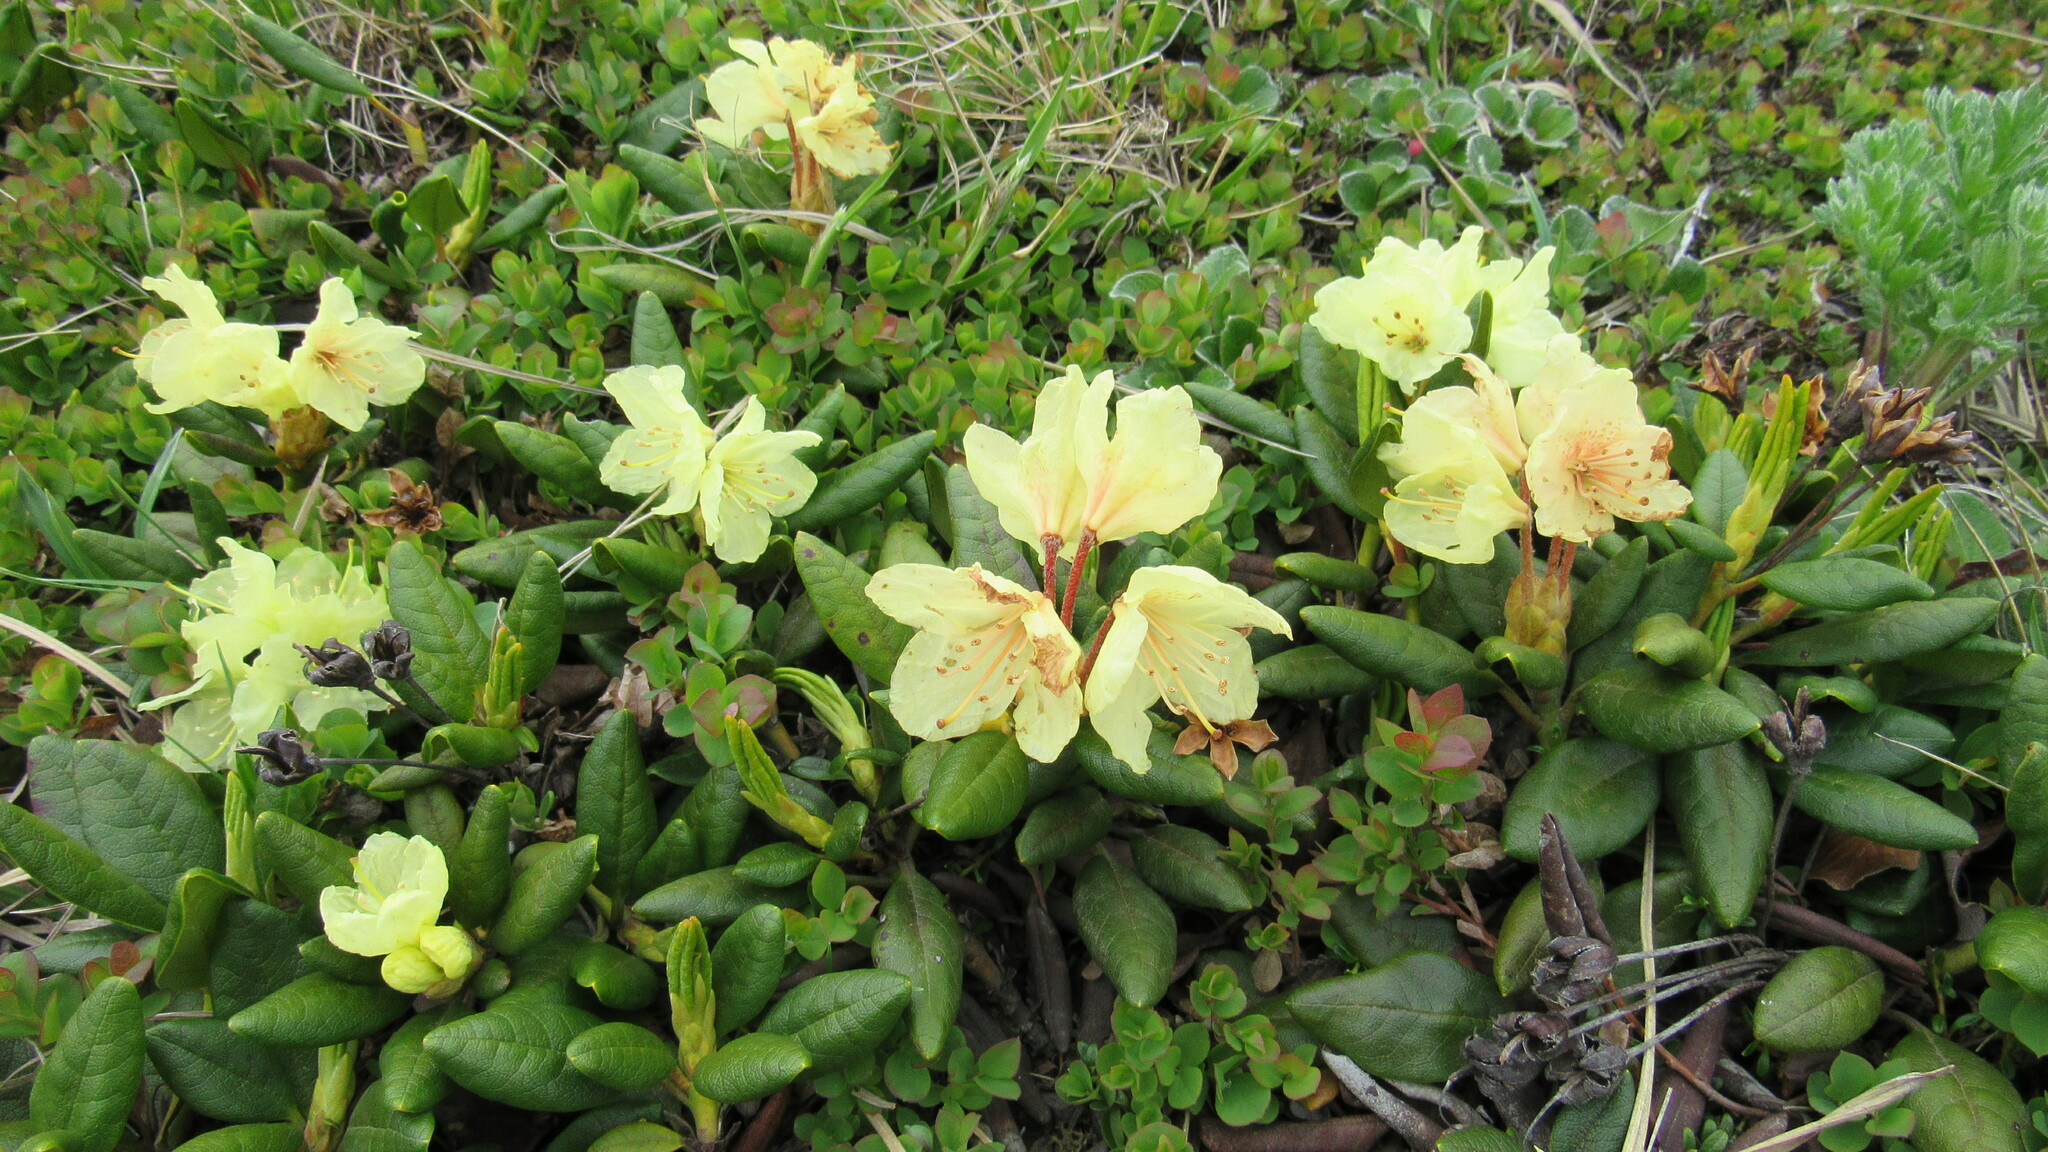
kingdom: Plantae
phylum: Tracheophyta
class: Magnoliopsida
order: Ericales
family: Ericaceae
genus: Rhododendron
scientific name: Rhododendron aureum
